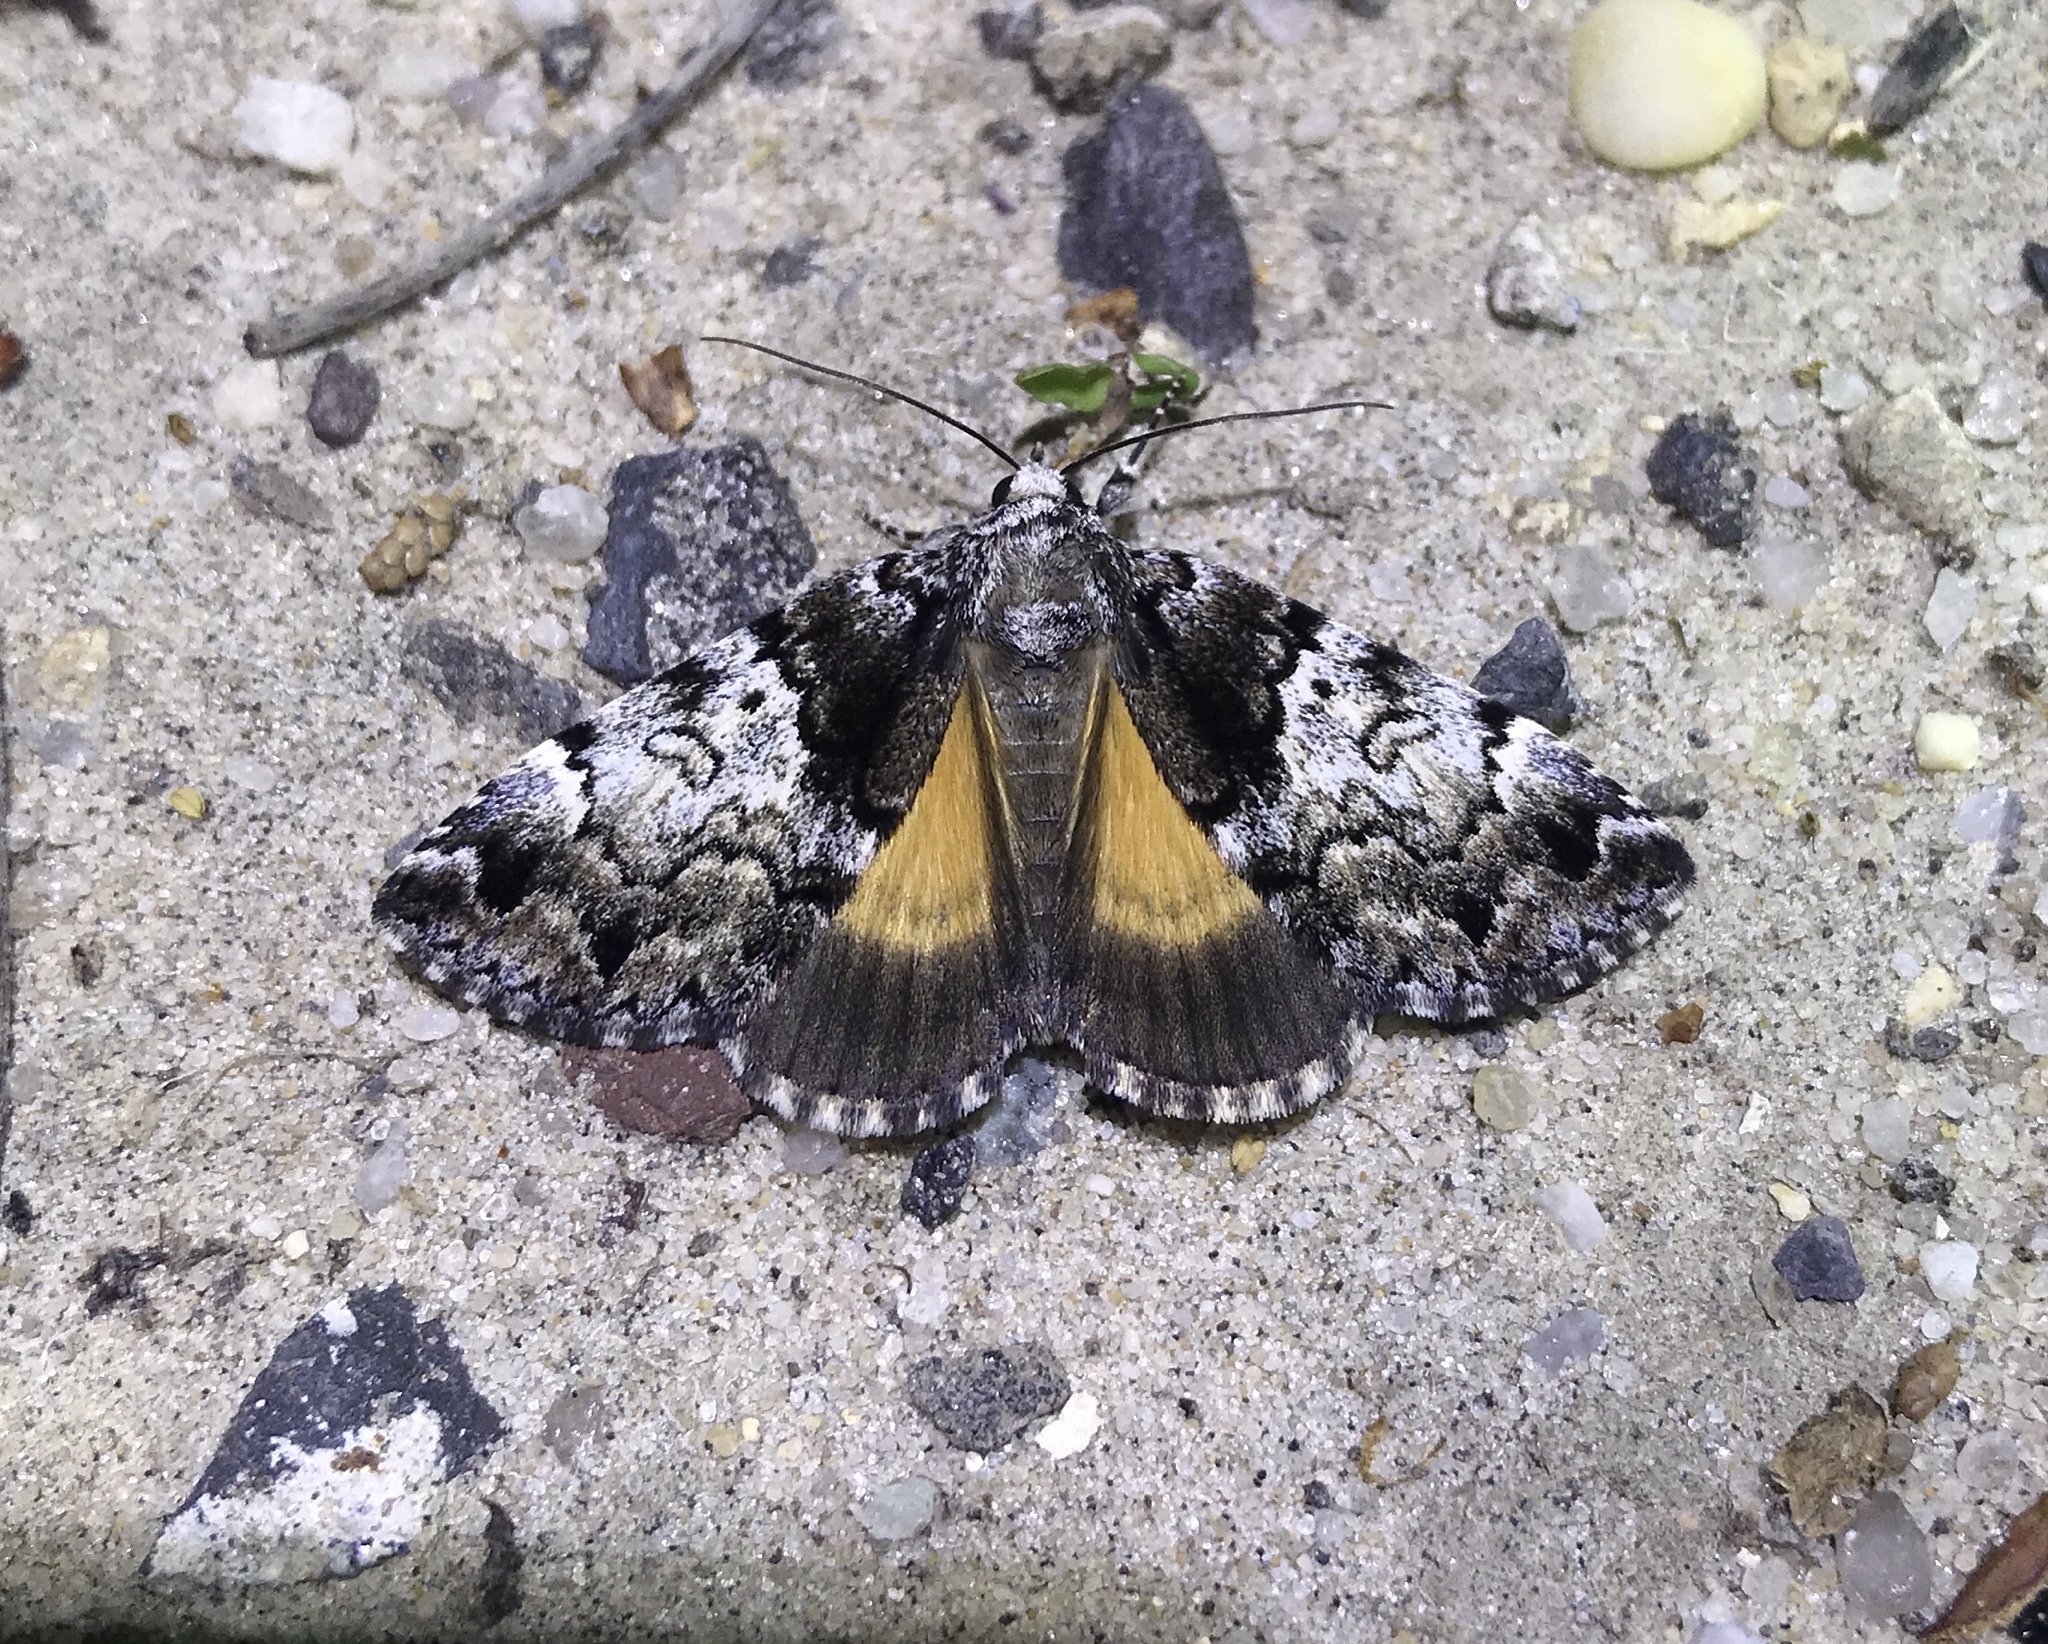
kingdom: Animalia
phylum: Arthropoda
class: Insecta
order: Lepidoptera
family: Erebidae
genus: Allotria
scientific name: Allotria elonympha
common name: False underwing
